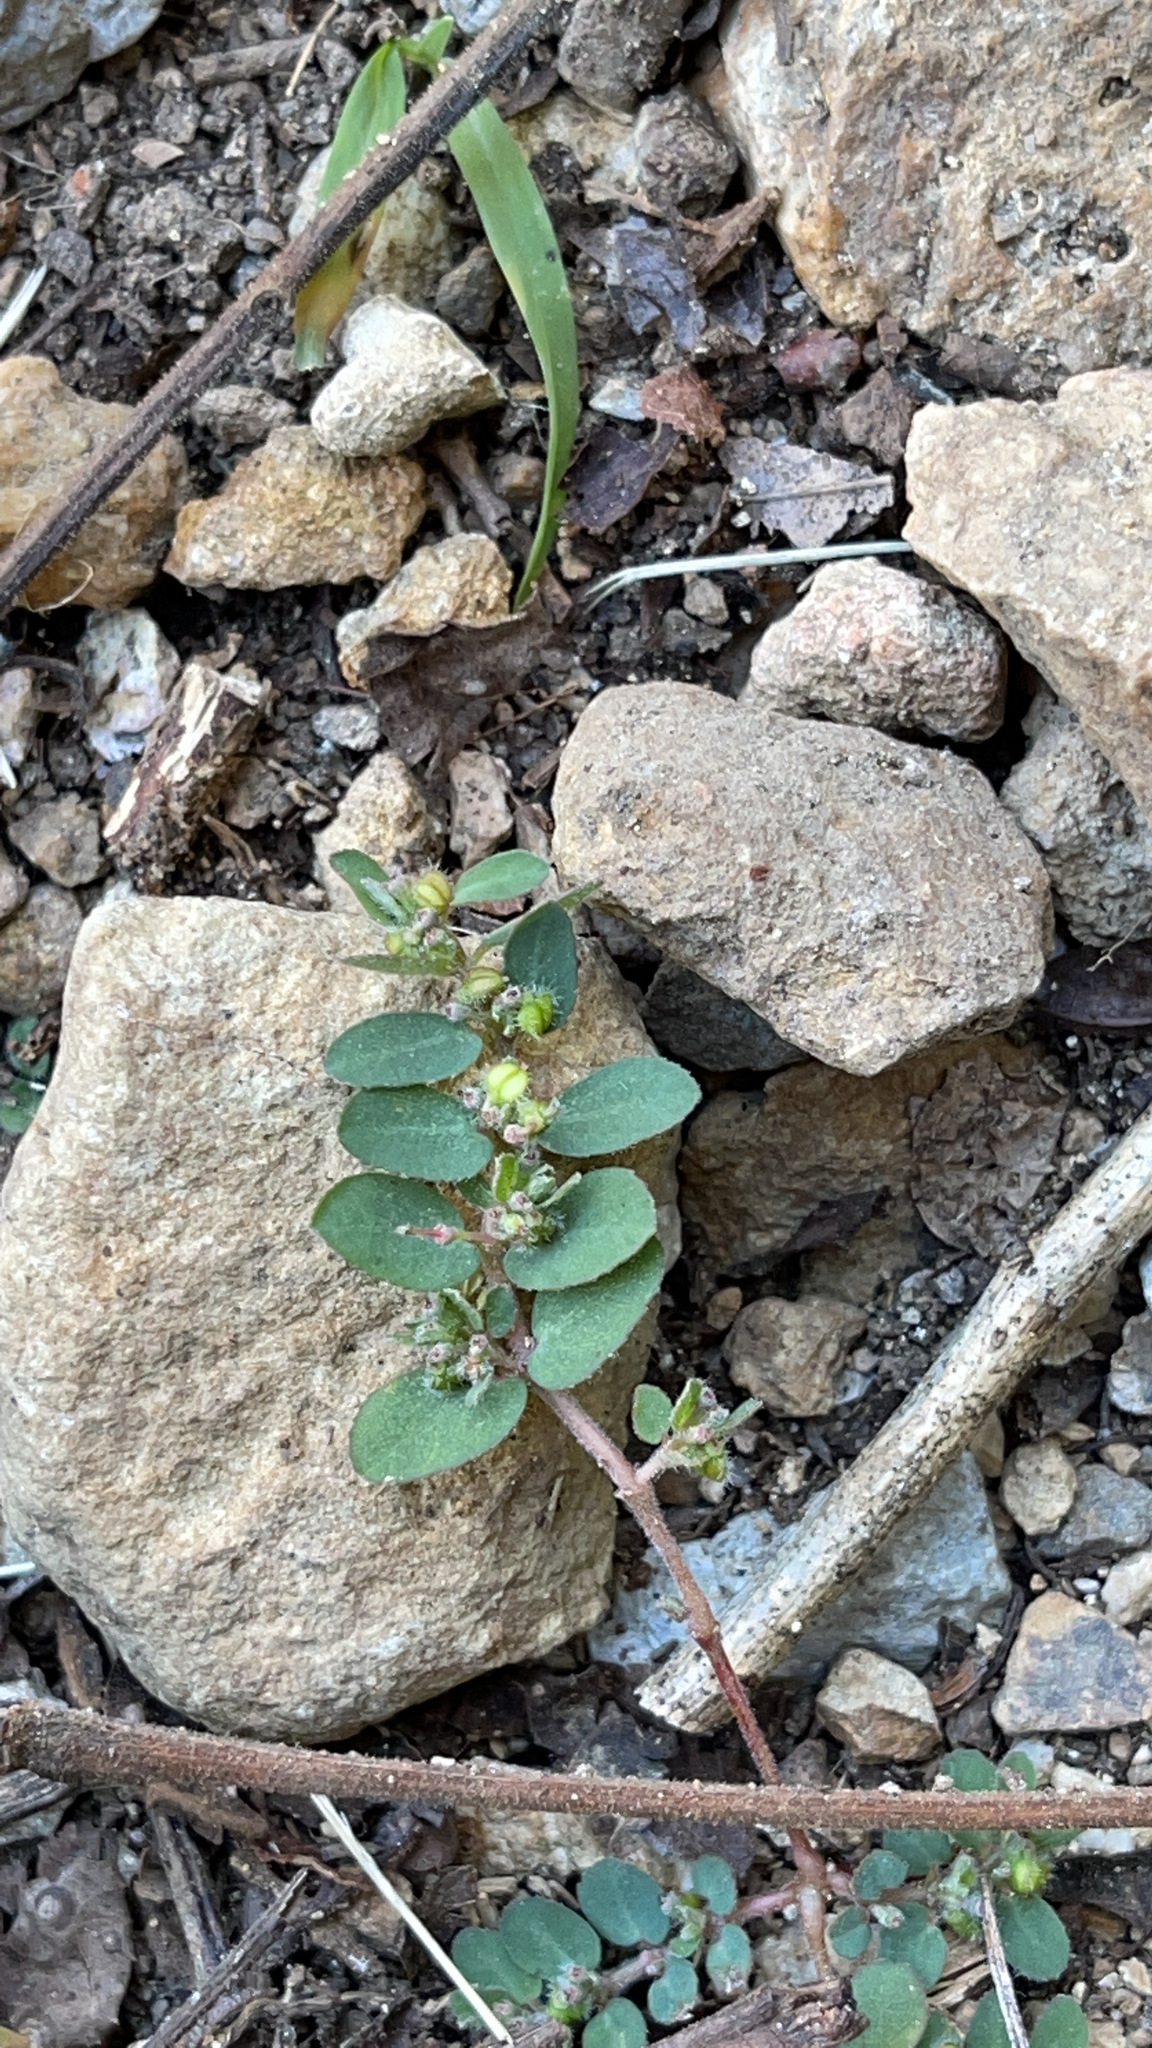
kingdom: Plantae
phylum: Tracheophyta
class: Magnoliopsida
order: Malpighiales
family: Euphorbiaceae
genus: Euphorbia
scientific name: Euphorbia prostrata
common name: Prostrate sandmat
